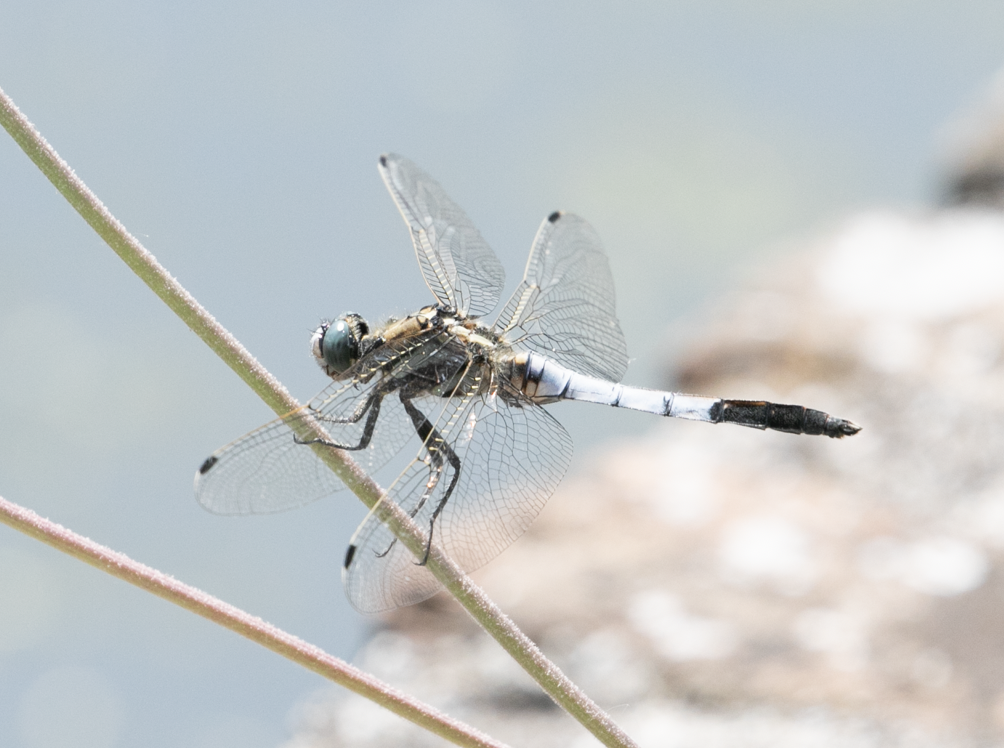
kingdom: Animalia
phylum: Arthropoda
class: Insecta
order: Odonata
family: Libellulidae
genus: Orthetrum
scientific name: Orthetrum albistylum
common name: White-tailed skimmer
